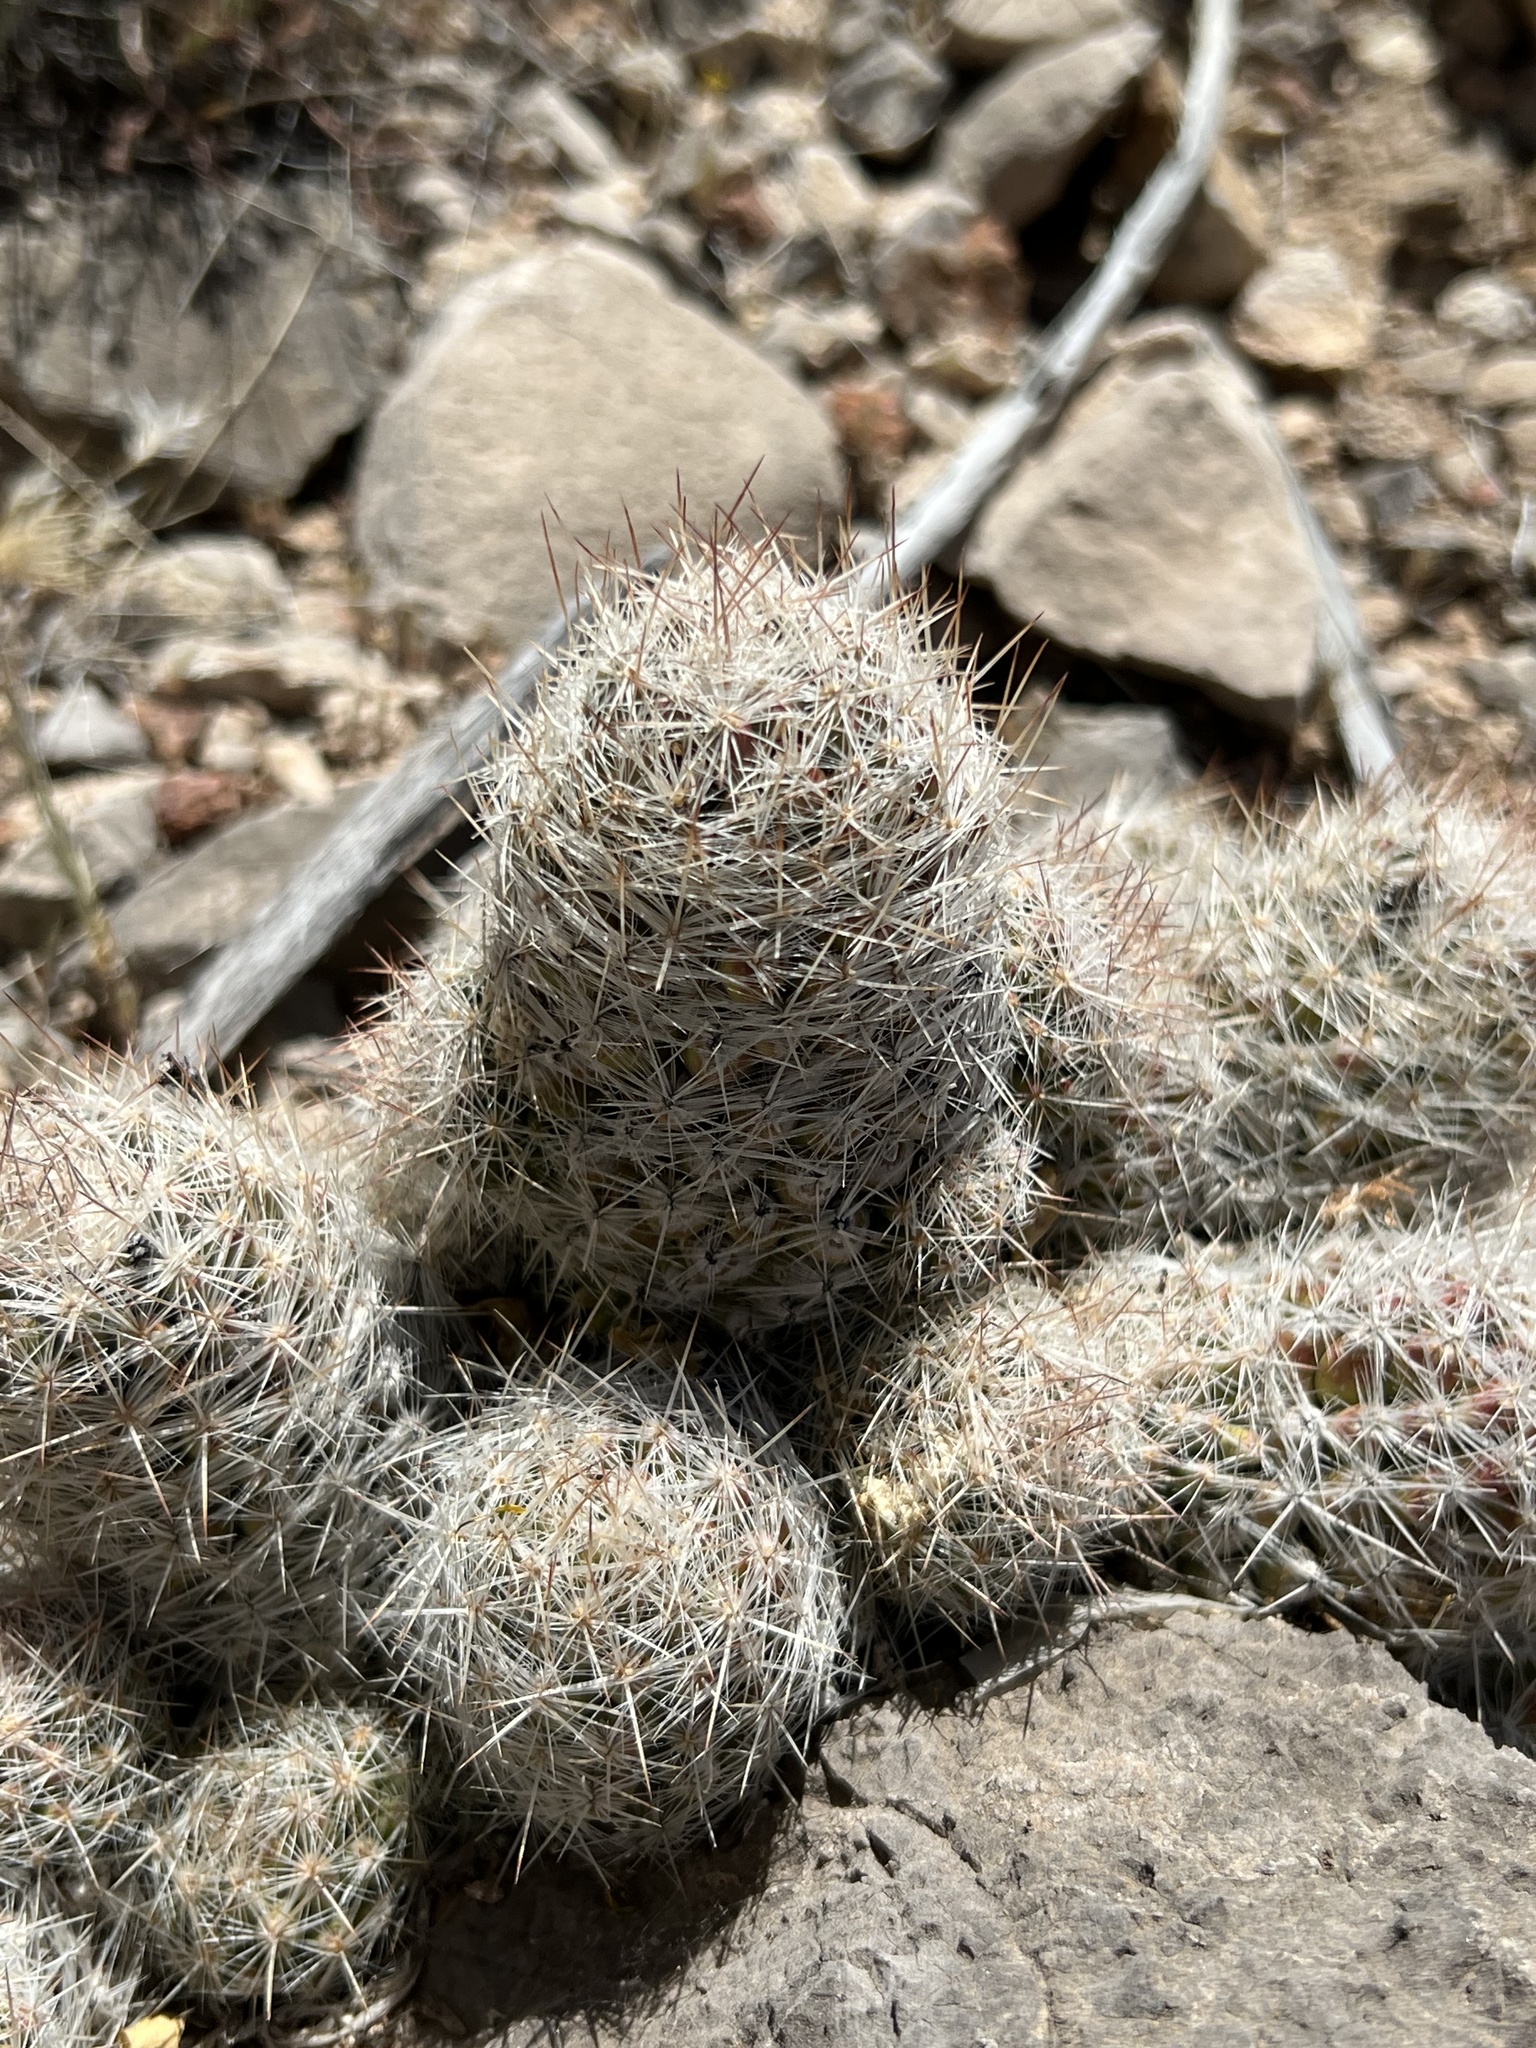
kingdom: Plantae
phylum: Tracheophyta
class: Magnoliopsida
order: Caryophyllales
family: Cactaceae
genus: Pelecyphora
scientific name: Pelecyphora tuberculosa
